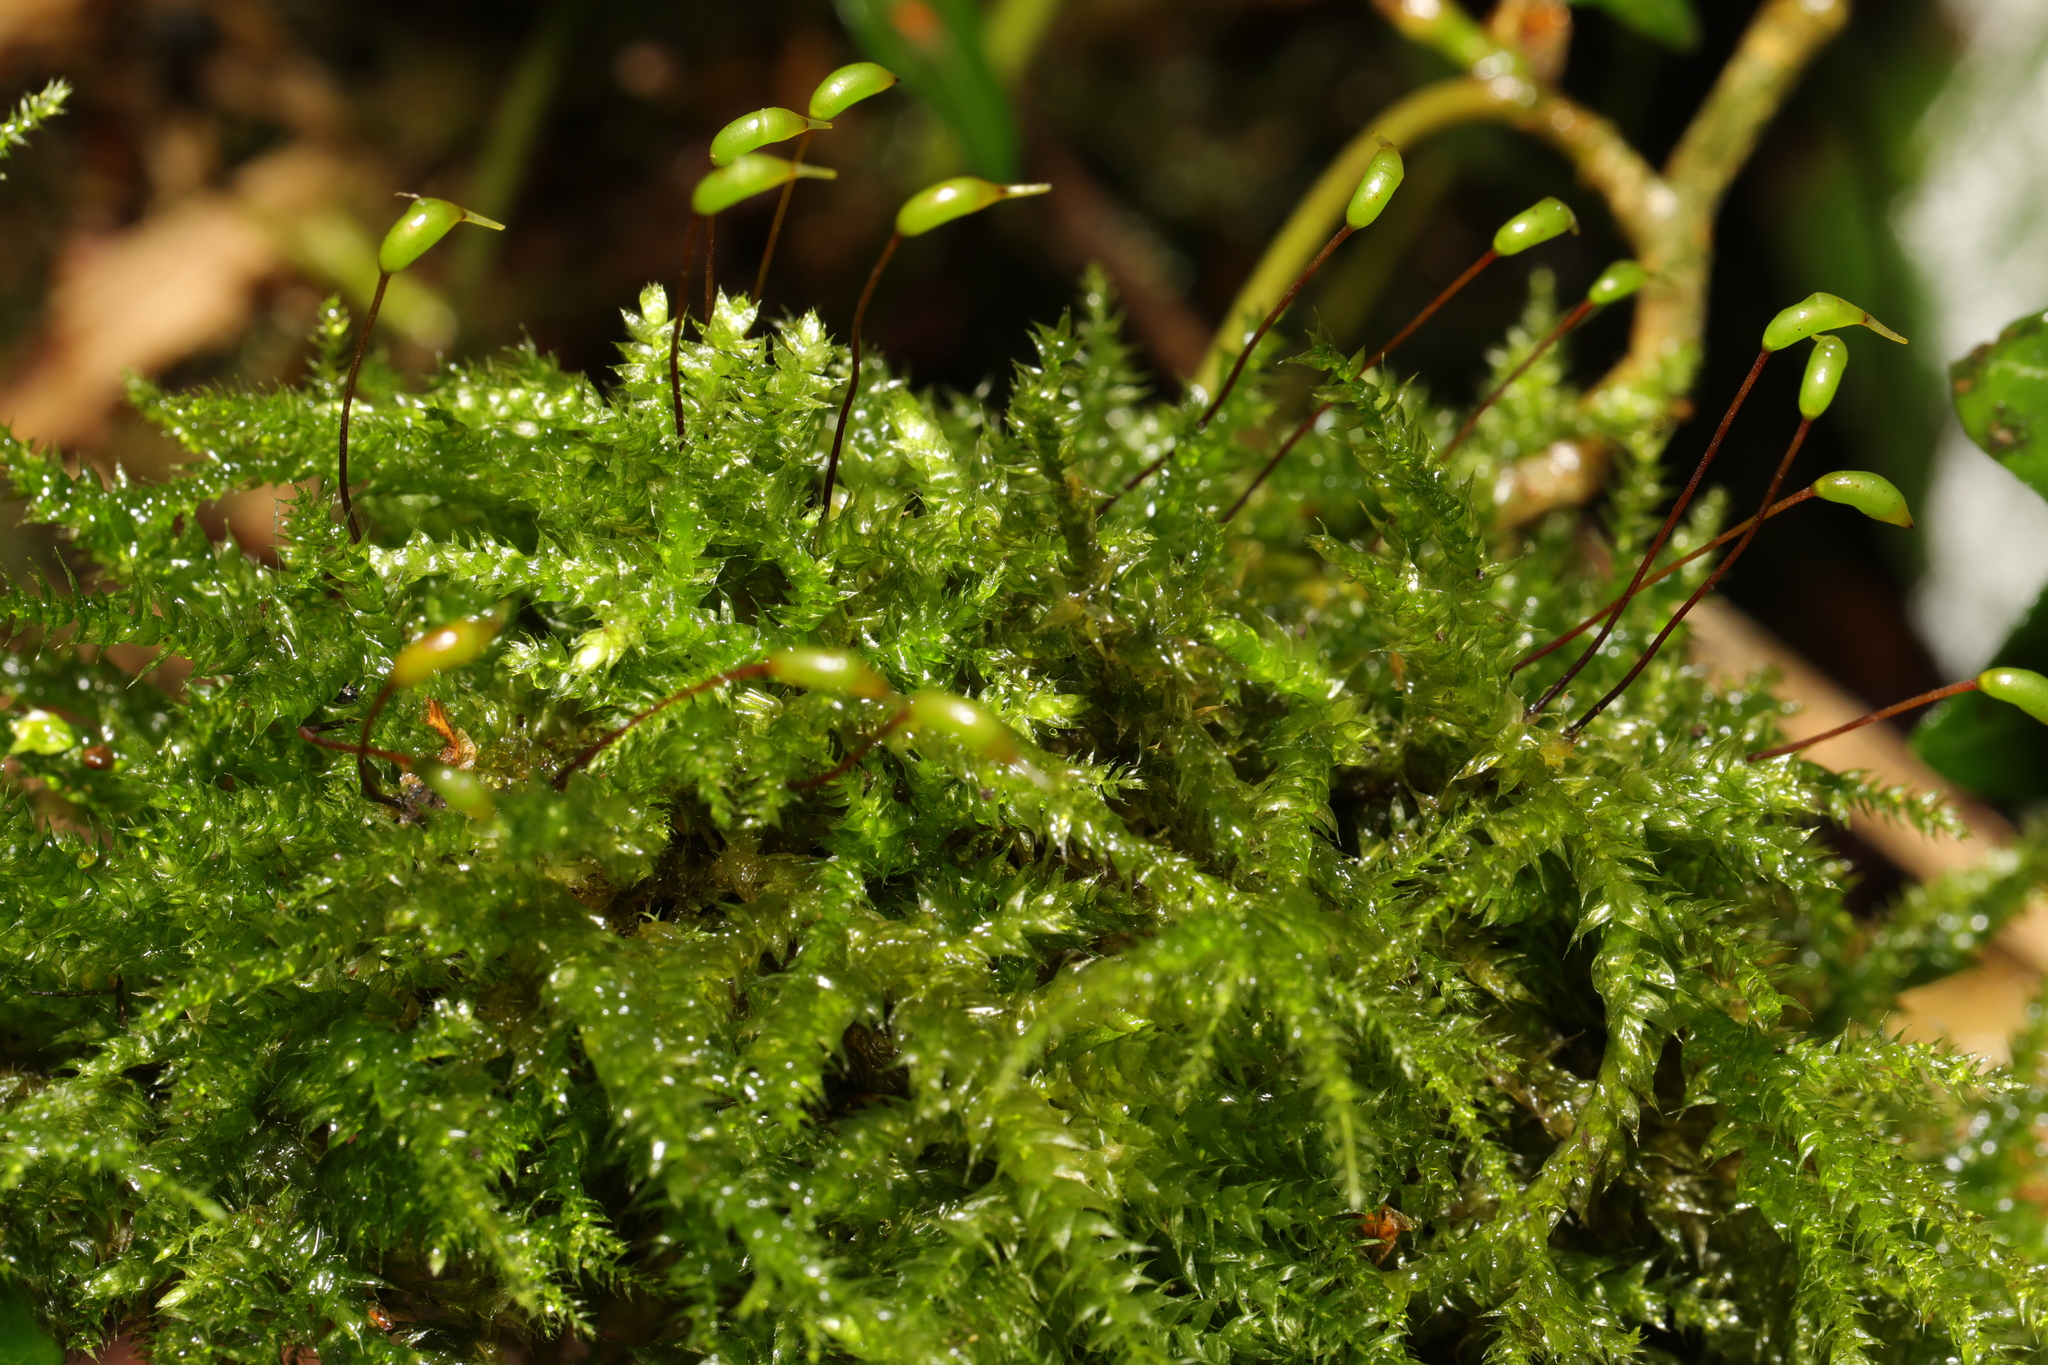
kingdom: Plantae
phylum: Bryophyta
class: Bryopsida
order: Hypnales
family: Brachytheciaceae
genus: Brachythecium
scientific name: Brachythecium rutabulum
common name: Rough-stalked feather-moss
